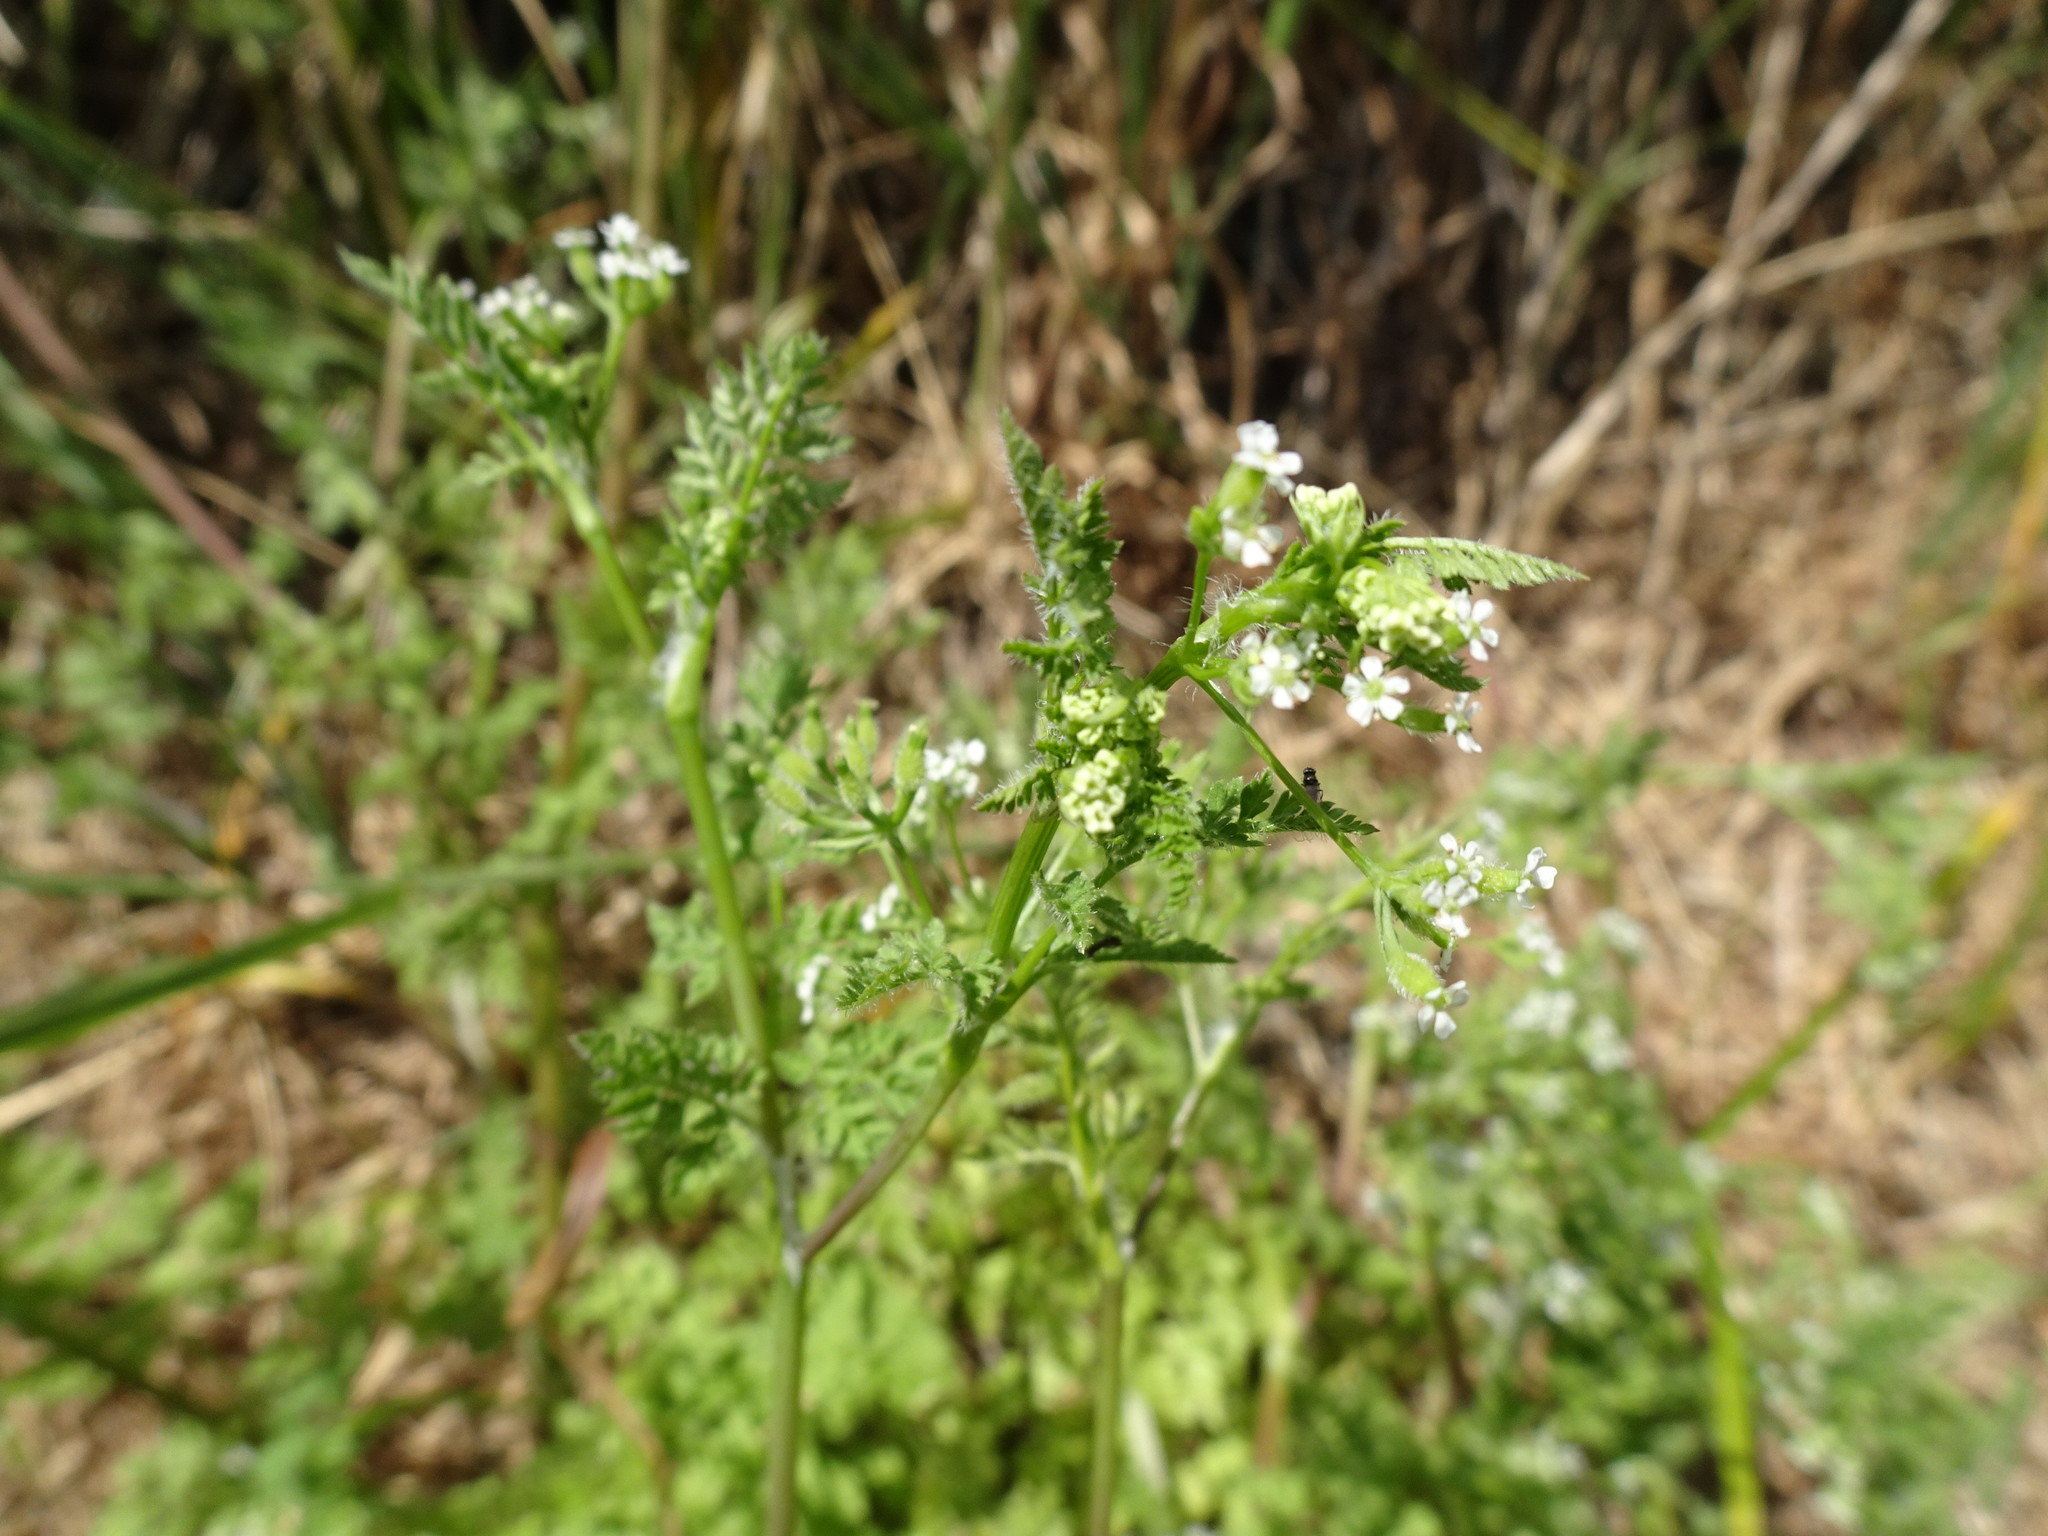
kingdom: Plantae
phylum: Tracheophyta
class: Magnoliopsida
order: Apiales
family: Apiaceae
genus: Anthriscus
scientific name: Anthriscus caucalis
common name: Bur chervil
